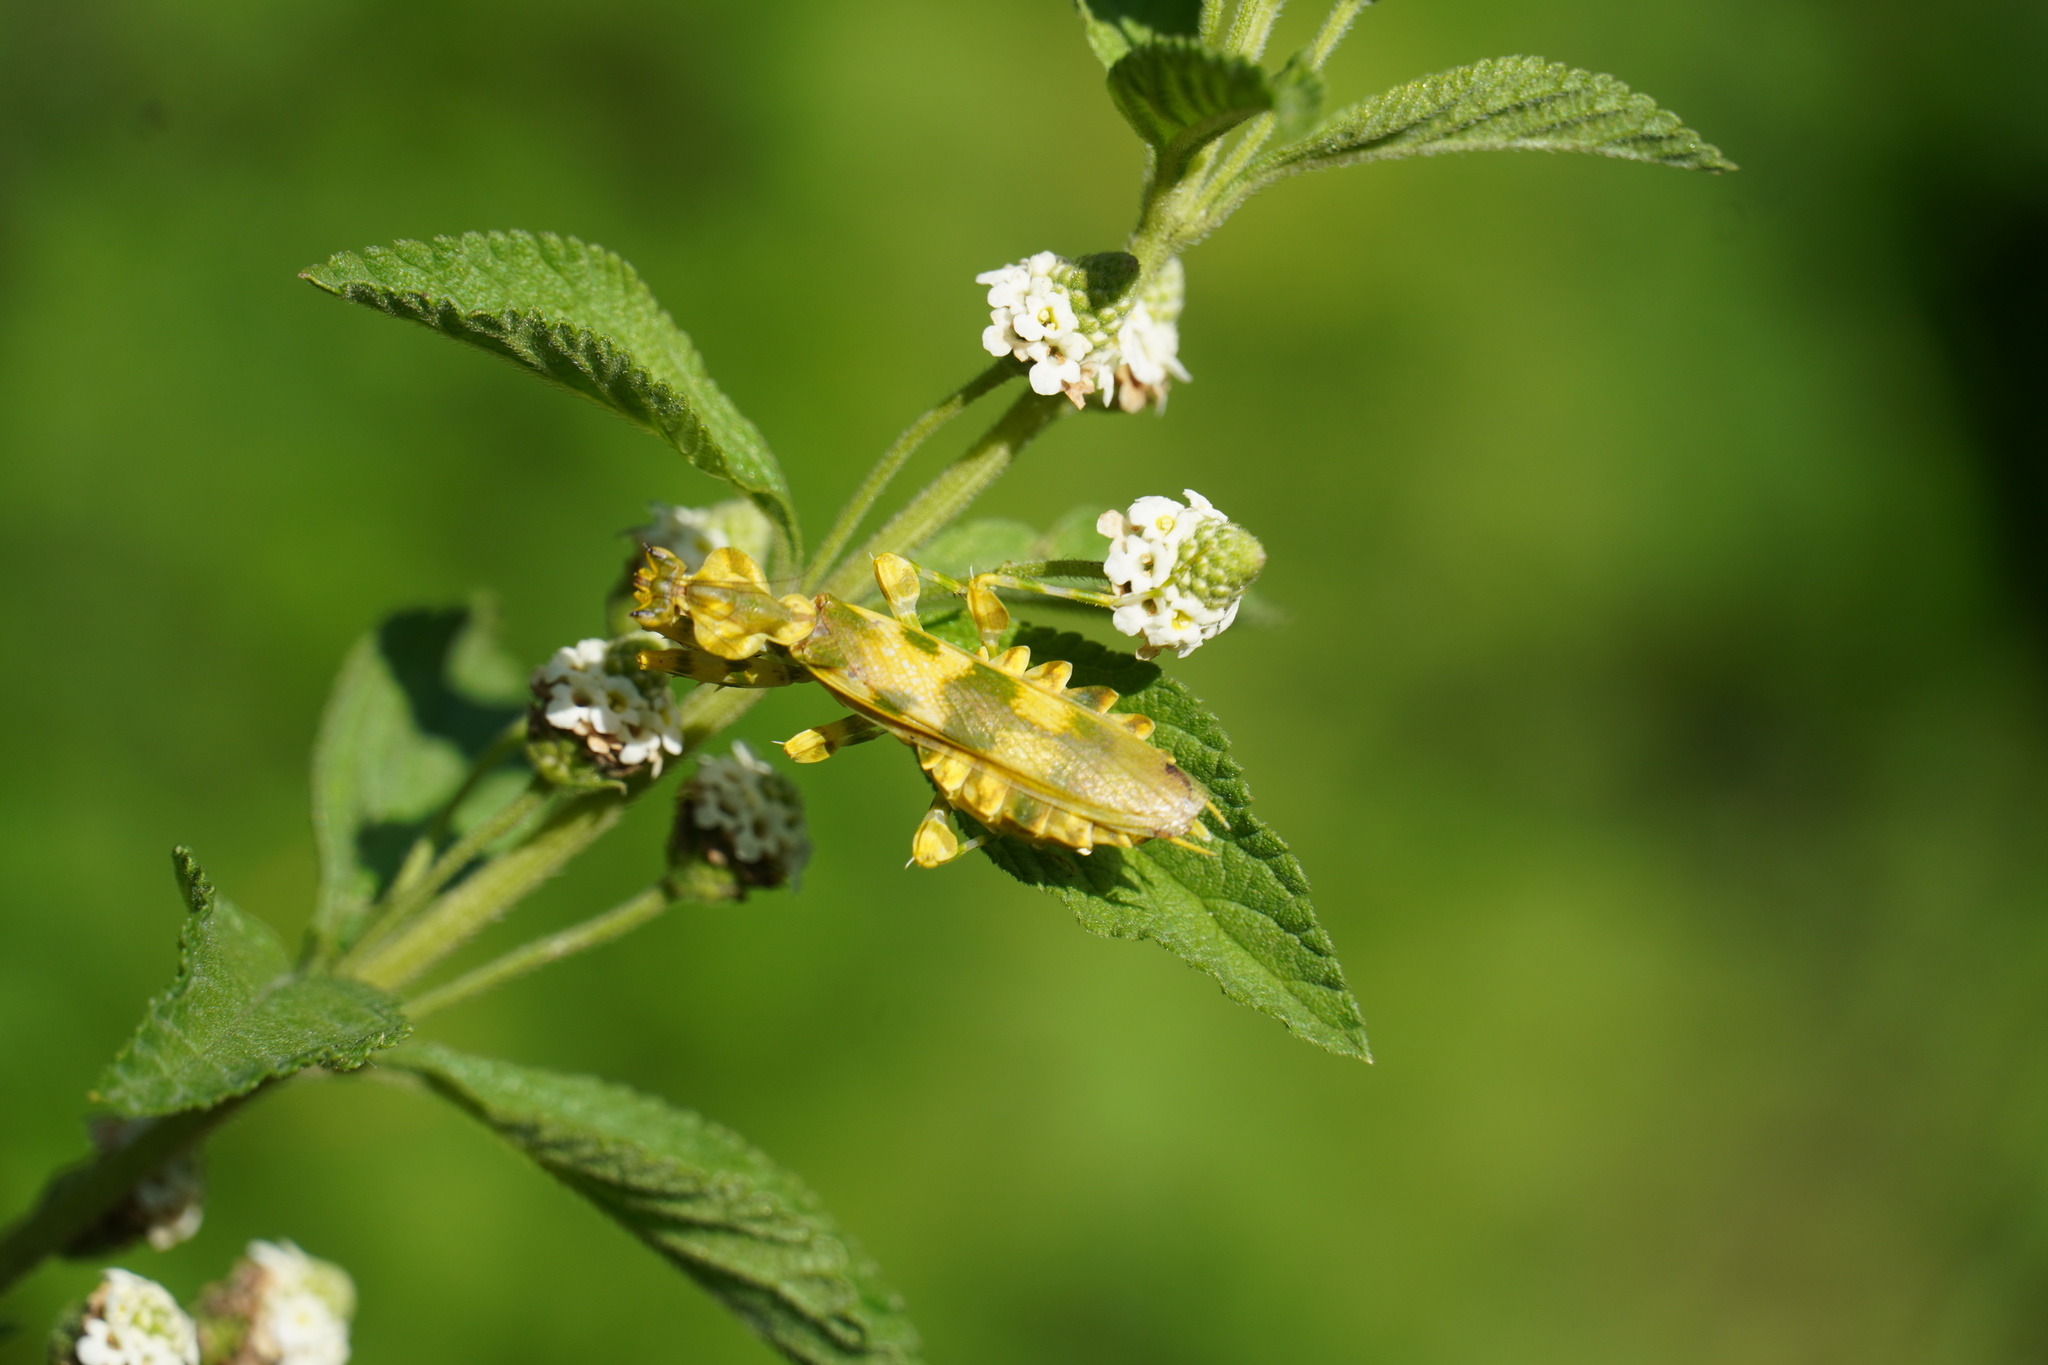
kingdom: Animalia
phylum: Arthropoda
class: Insecta
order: Mantodea
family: Galinthiadidae
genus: Harpagomantis
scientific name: Harpagomantis tricolor
